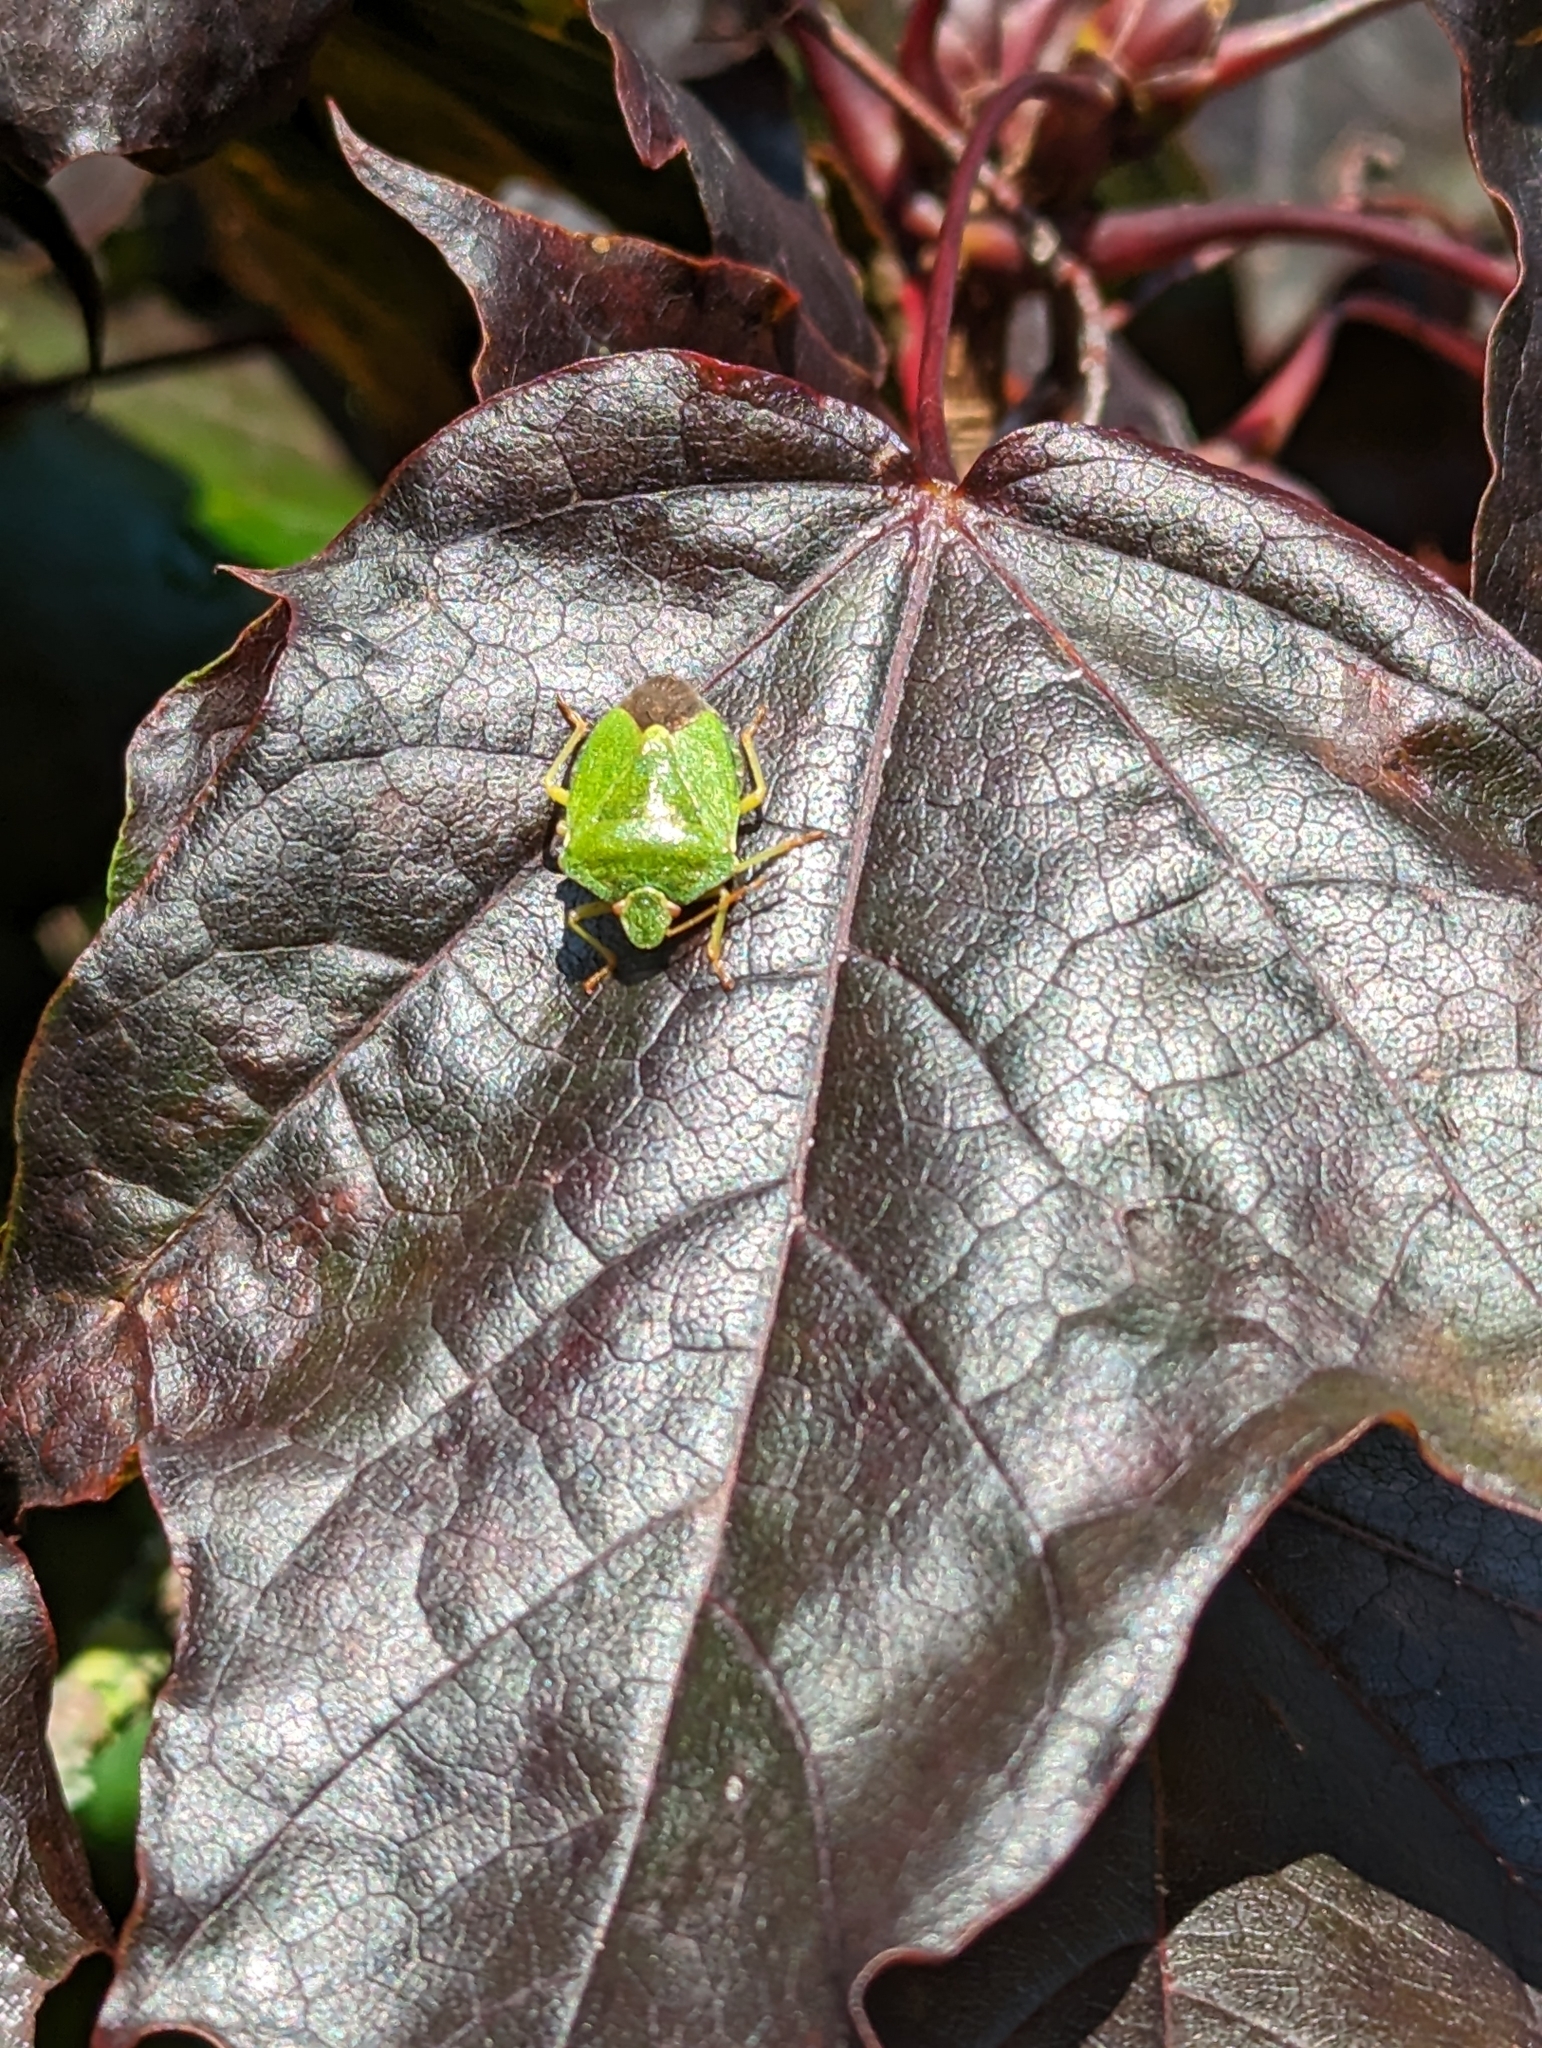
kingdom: Animalia
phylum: Arthropoda
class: Insecta
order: Hemiptera
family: Pentatomidae
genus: Palomena
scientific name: Palomena prasina
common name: Green shieldbug
